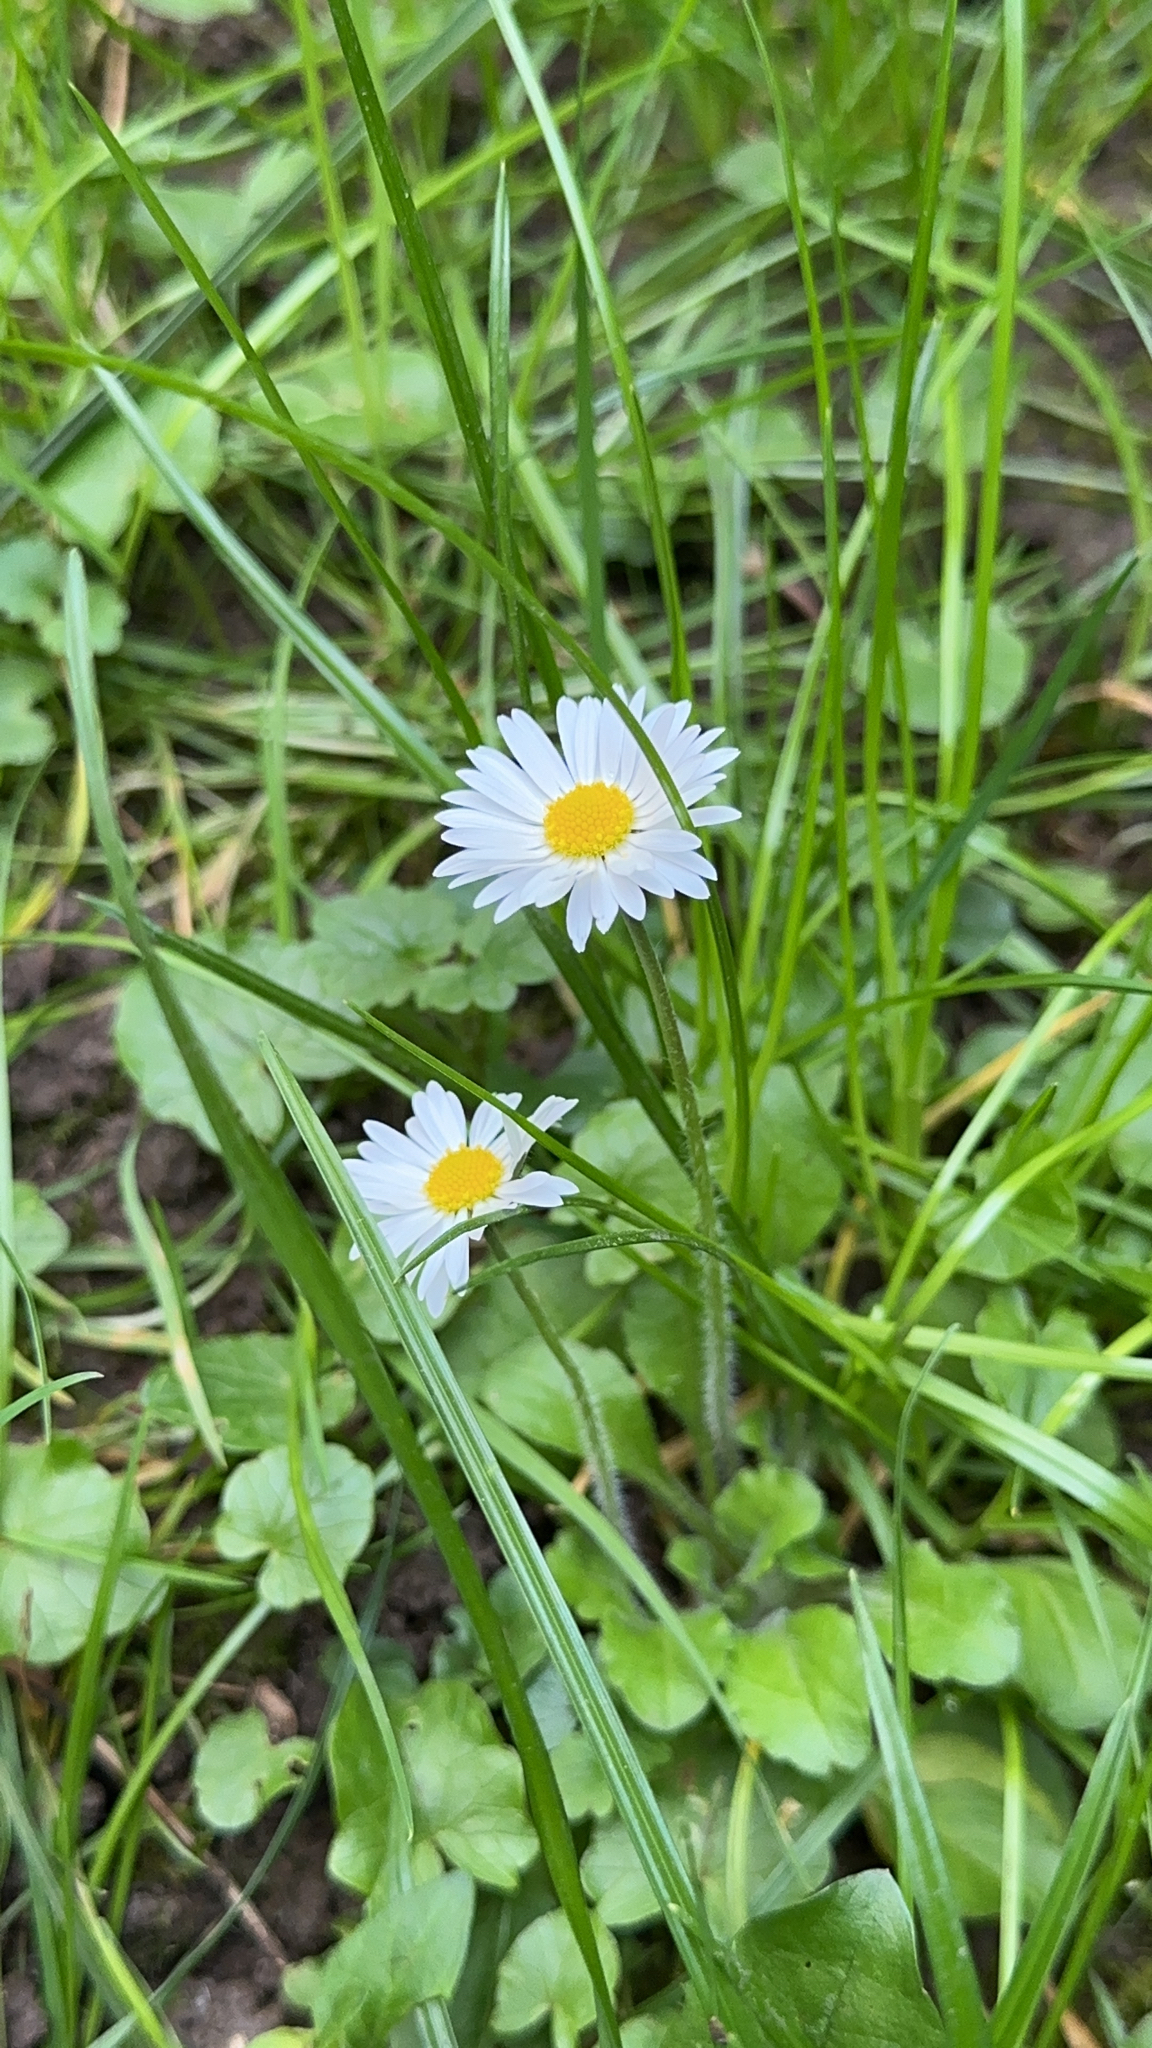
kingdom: Plantae
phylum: Tracheophyta
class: Magnoliopsida
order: Asterales
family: Asteraceae
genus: Bellis
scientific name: Bellis perennis
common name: Lawndaisy
